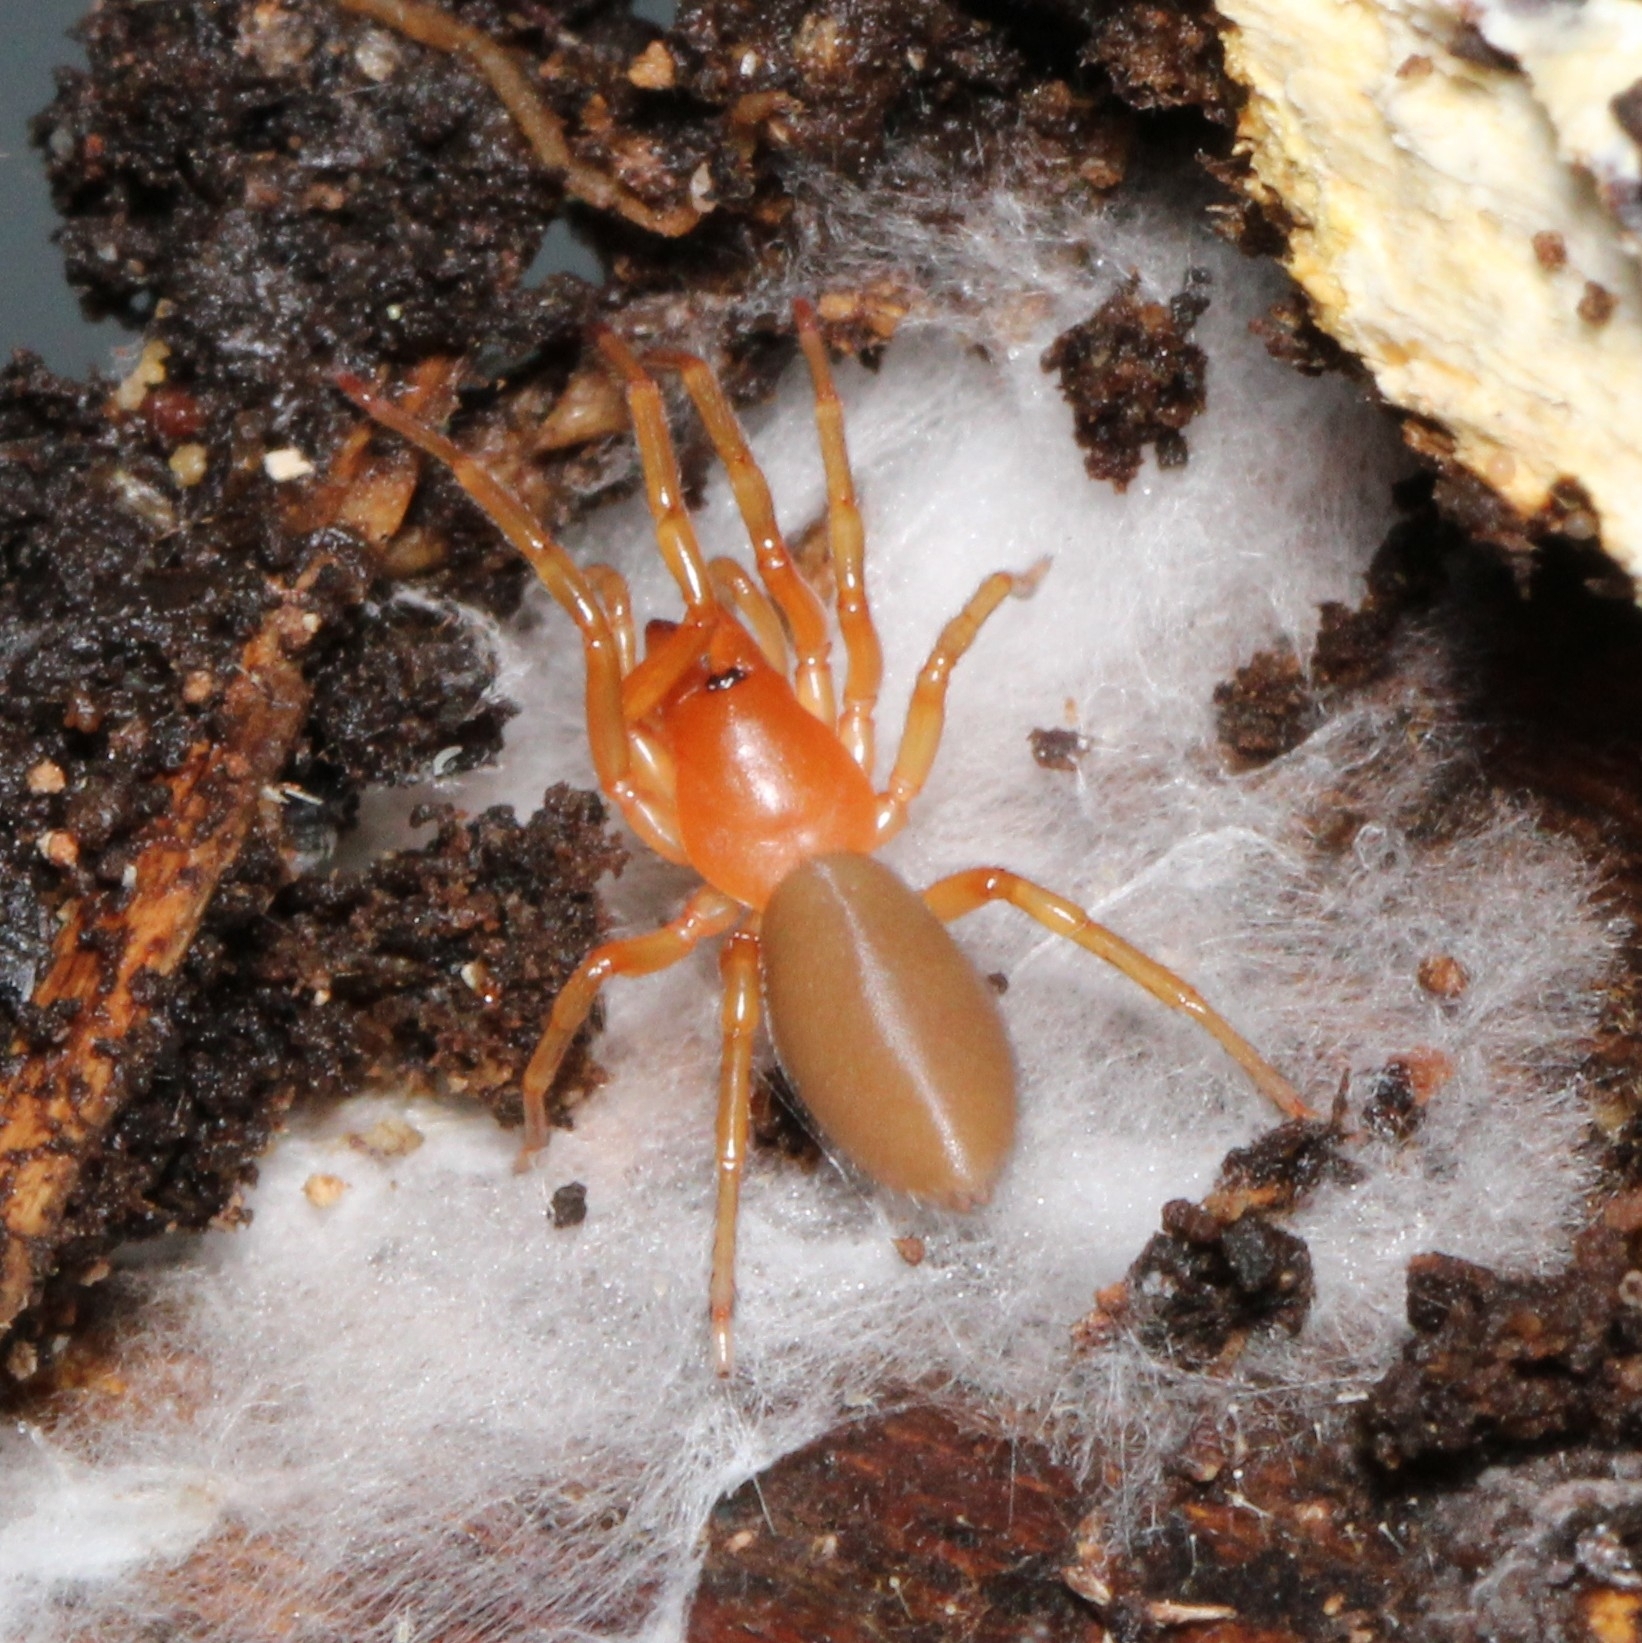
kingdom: Animalia
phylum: Arthropoda
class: Arachnida
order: Araneae
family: Dysderidae
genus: Dysdera
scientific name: Dysdera crocata
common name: Woodlouse spider
